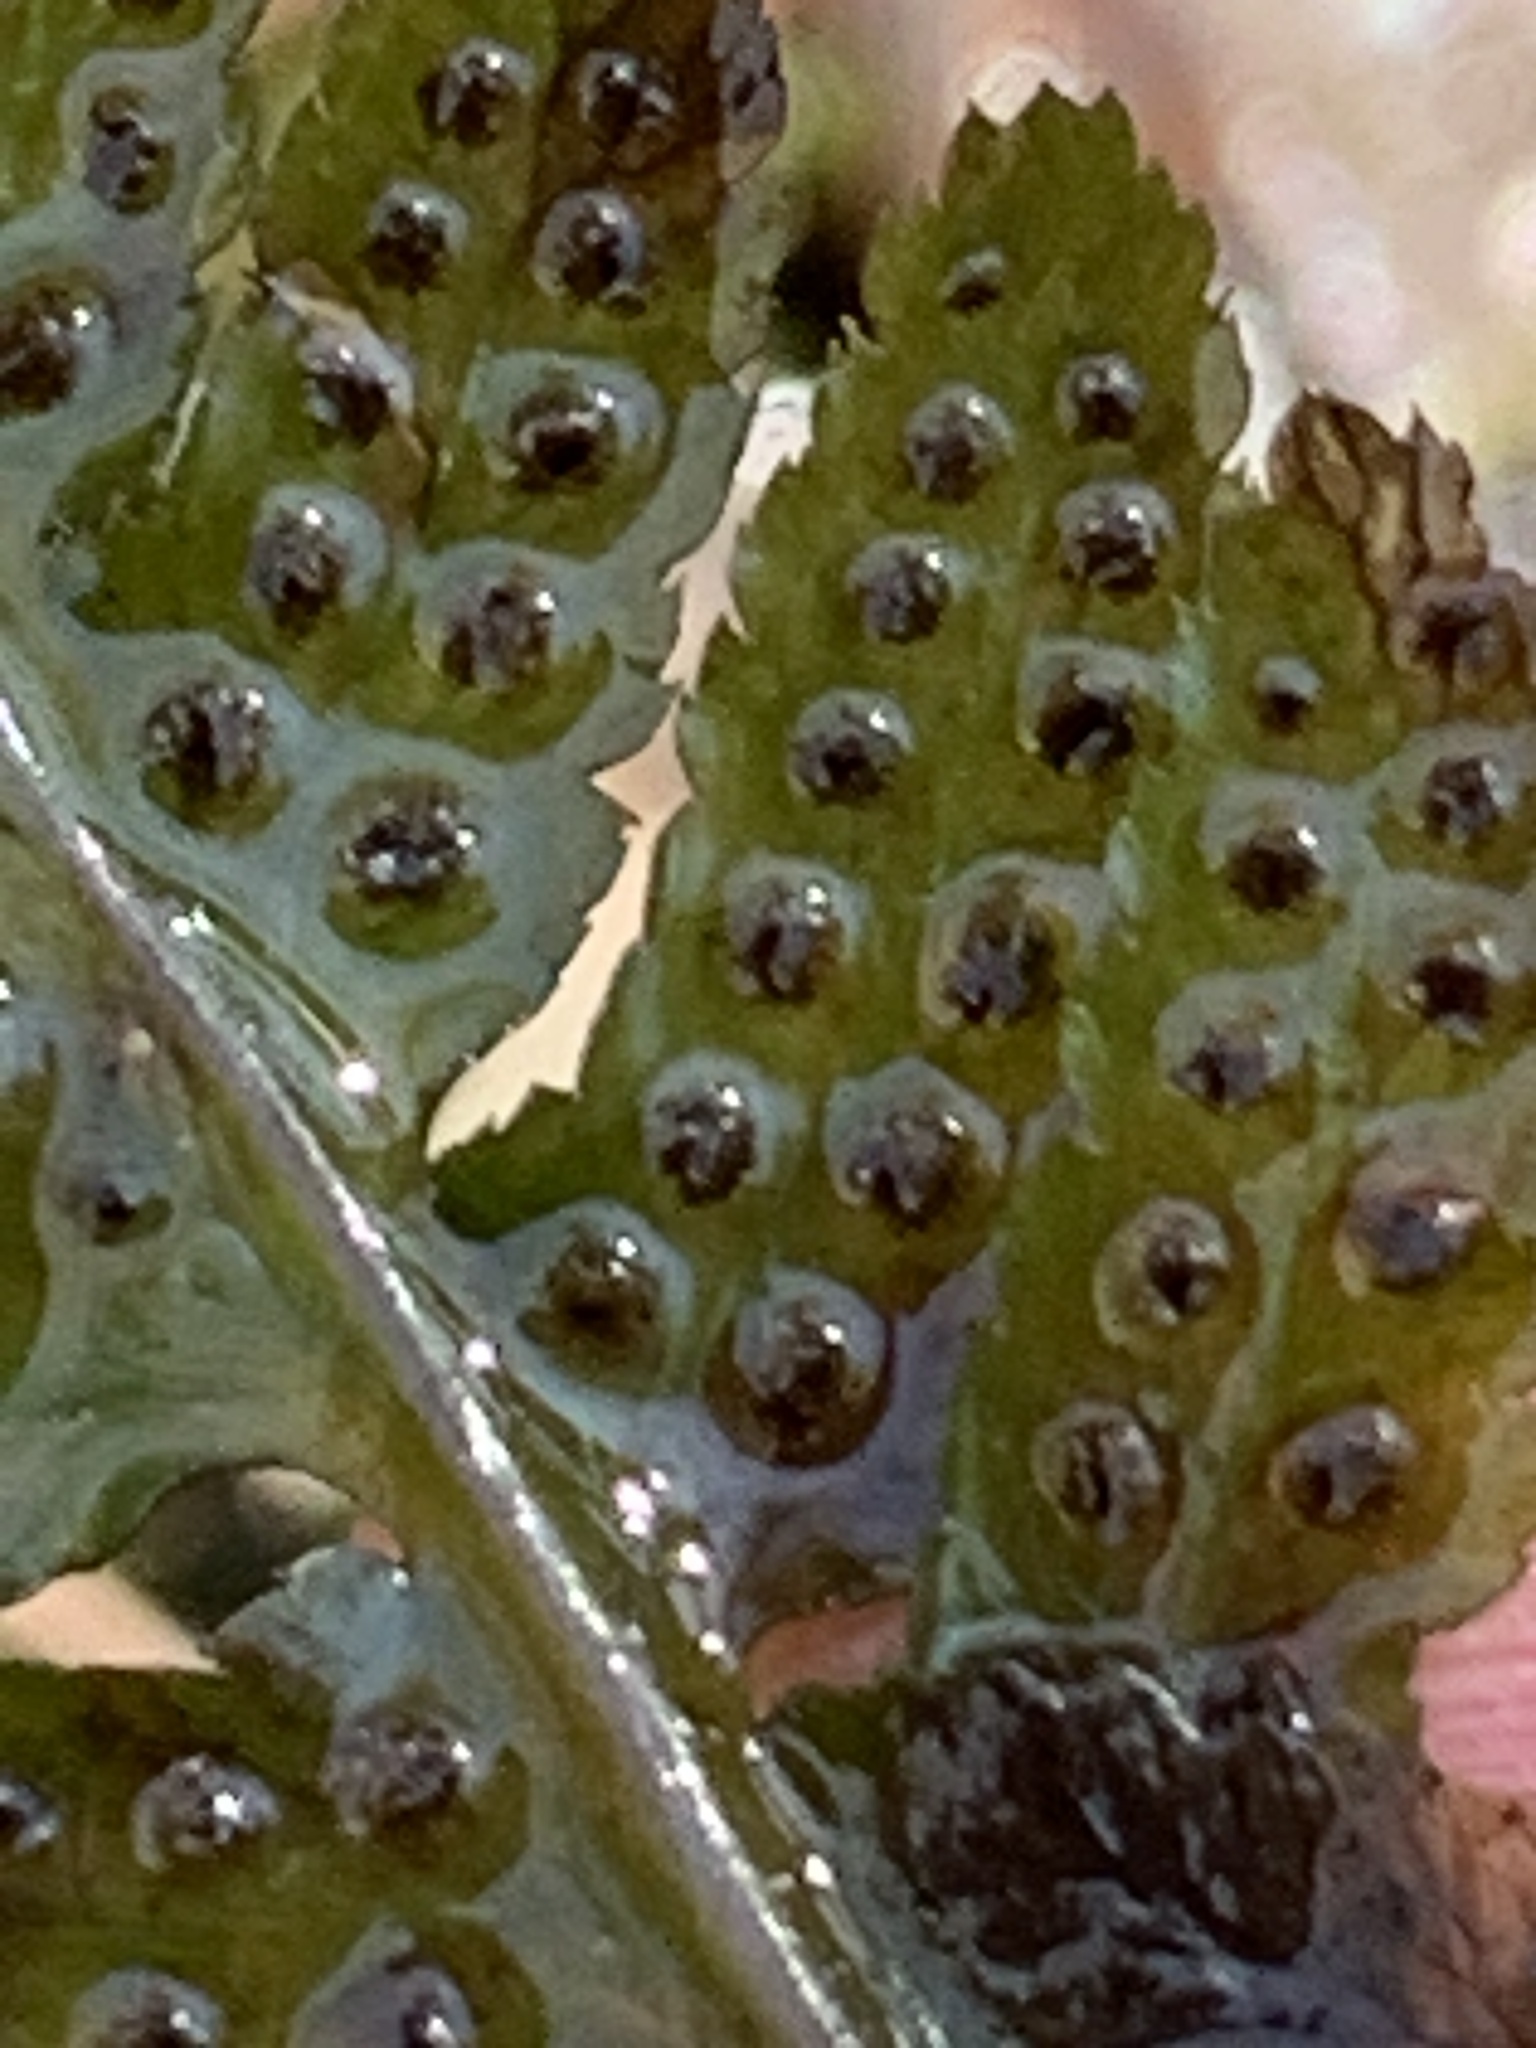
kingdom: Plantae
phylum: Tracheophyta
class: Polypodiopsida
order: Polypodiales
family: Dryopteridaceae
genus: Dryopteris
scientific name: Dryopteris clintoniana
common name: Clinton's wood fern
